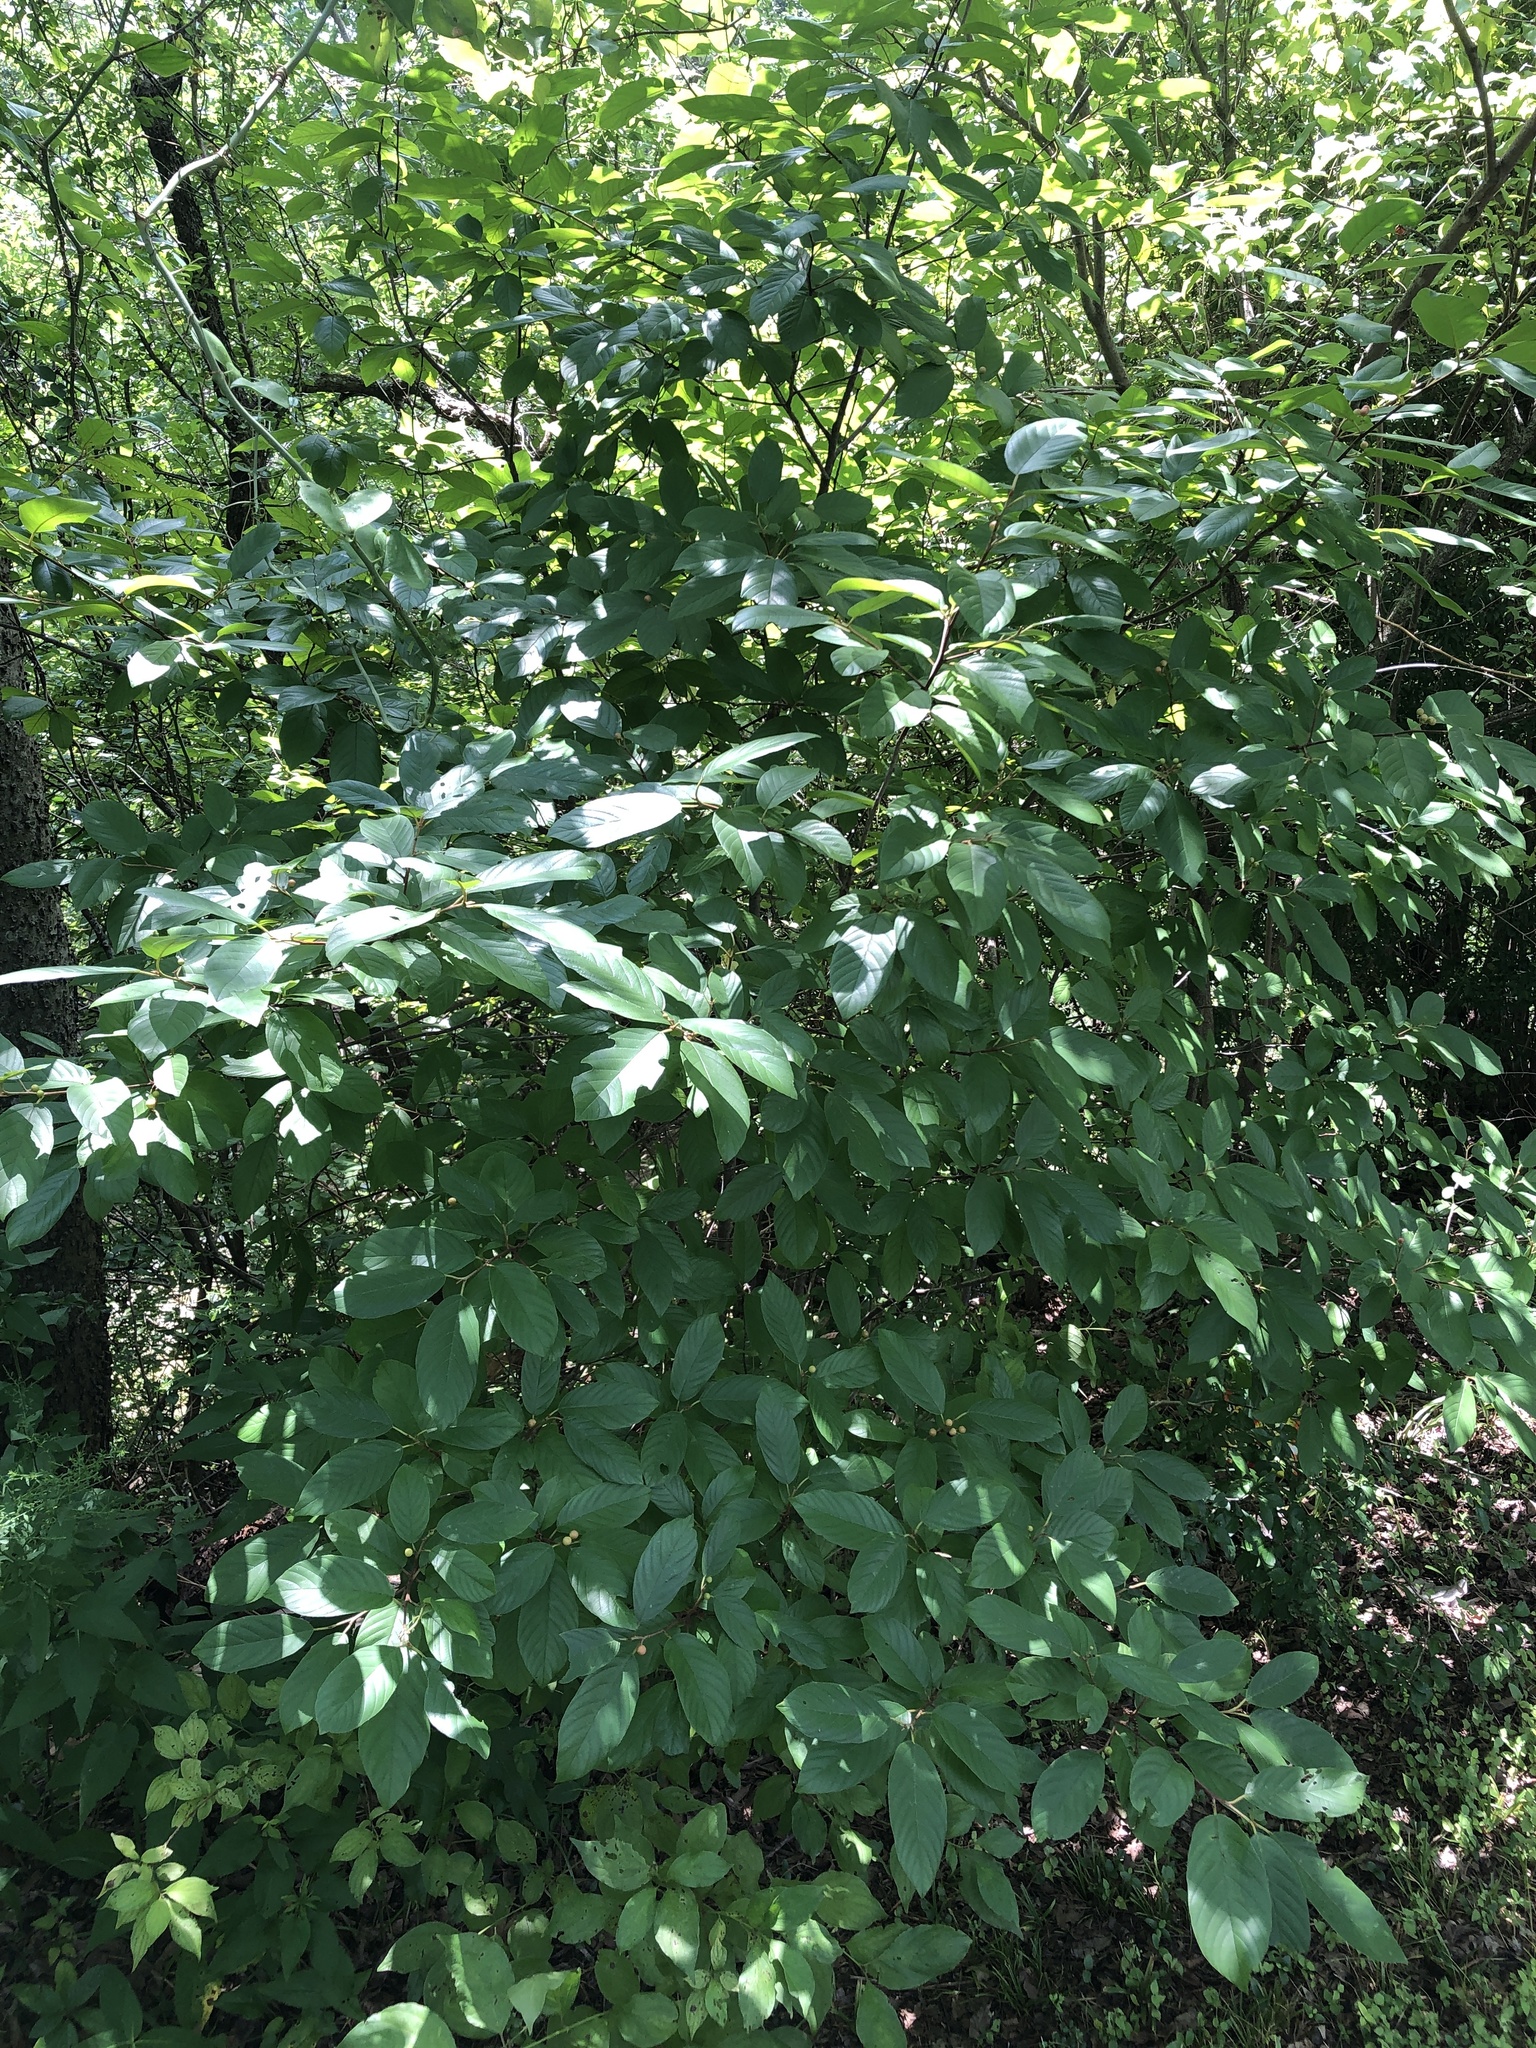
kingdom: Plantae
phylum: Tracheophyta
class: Magnoliopsida
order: Rosales
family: Rhamnaceae
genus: Frangula
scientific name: Frangula caroliniana
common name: Carolina buckthorn
